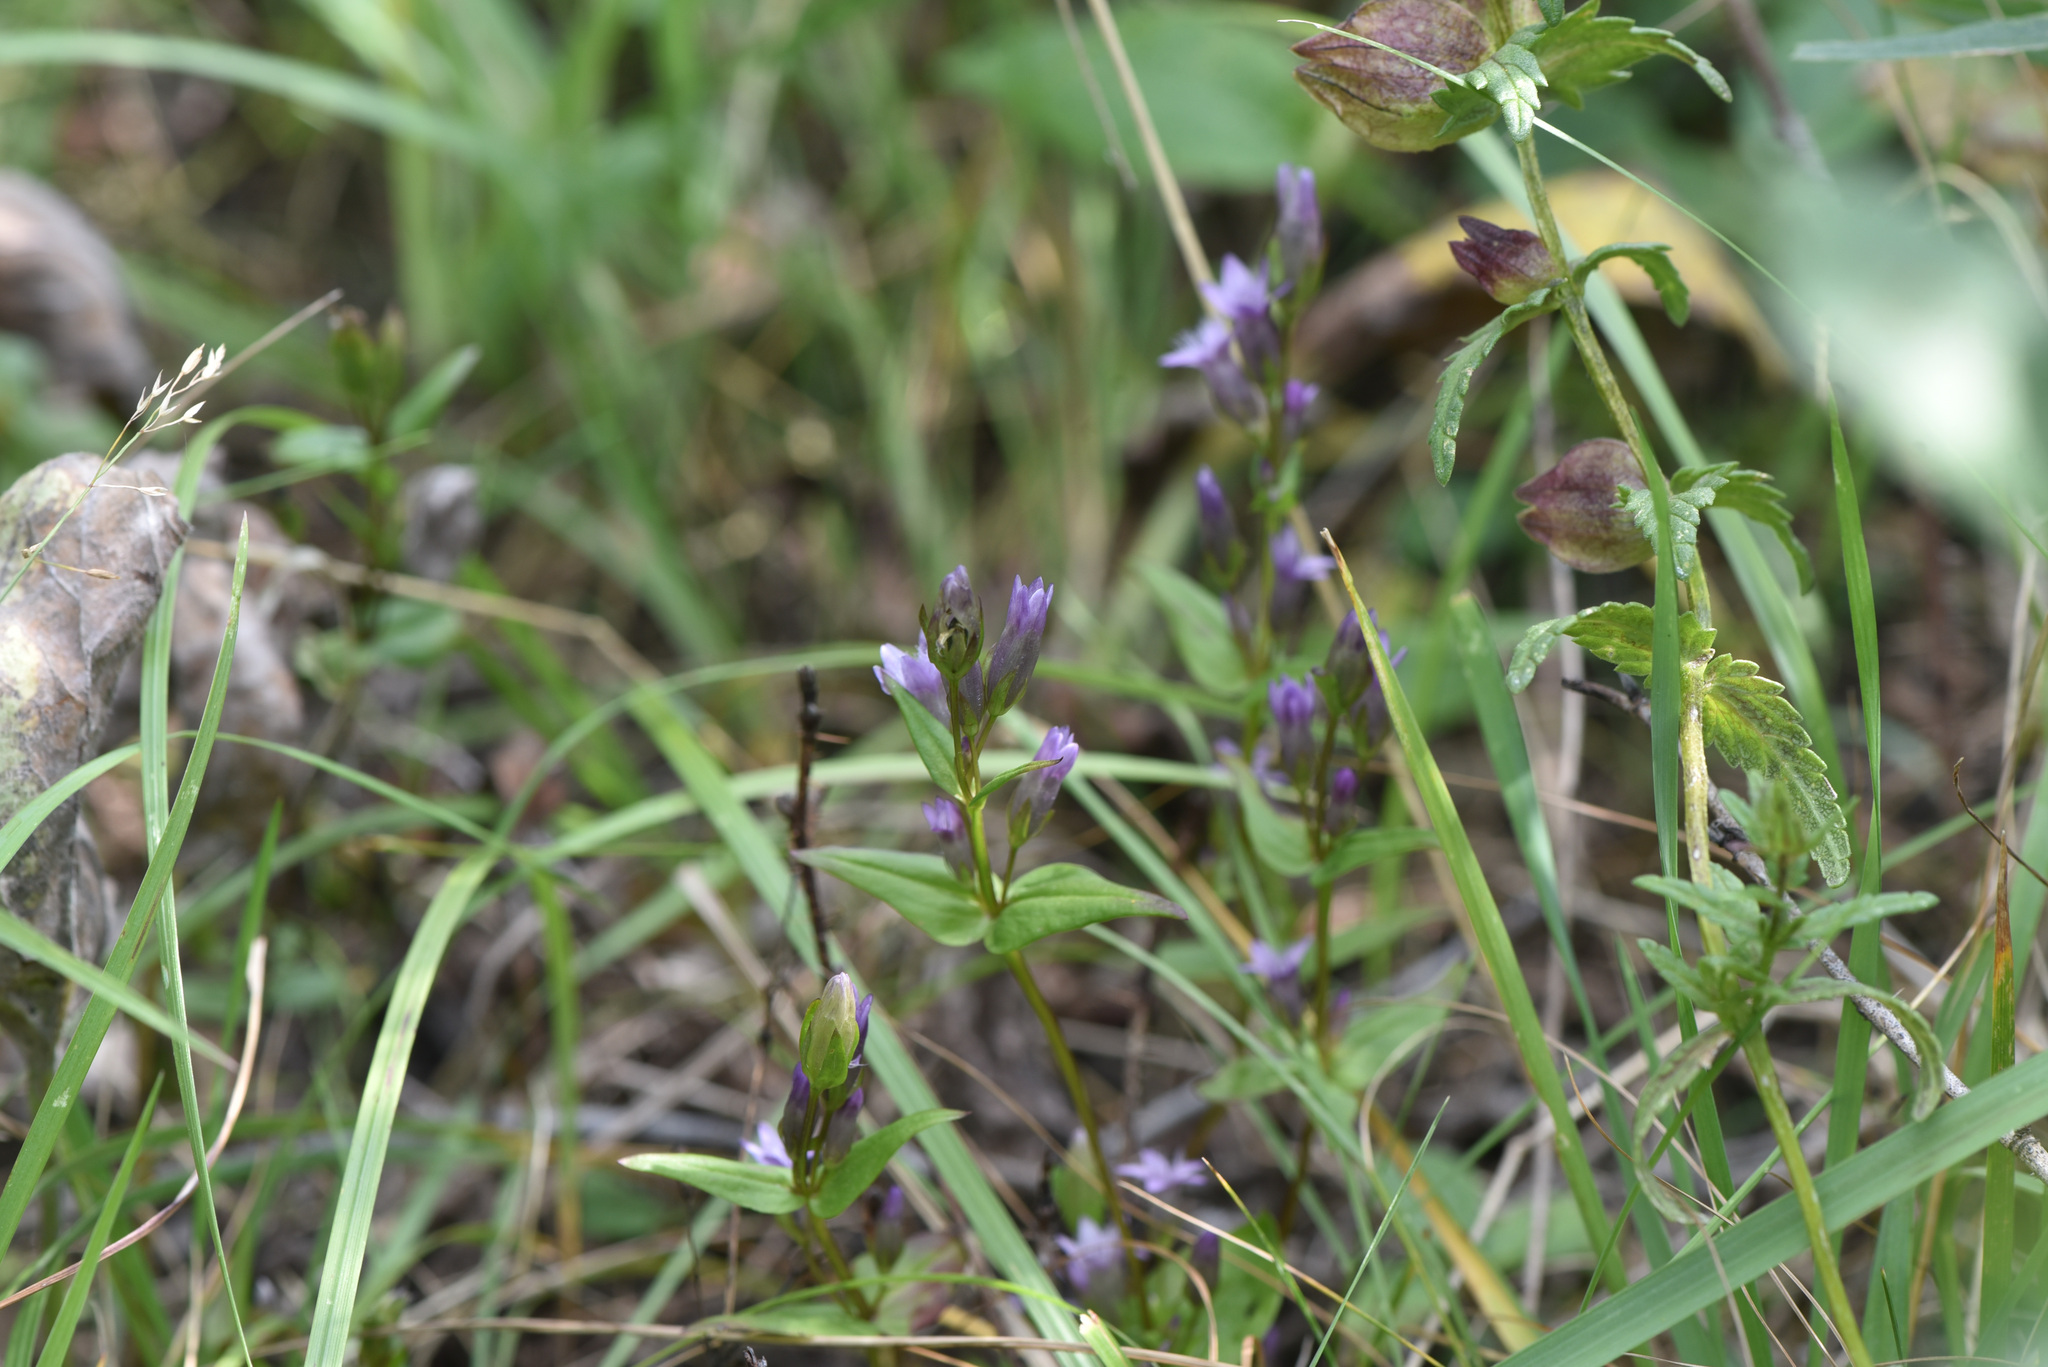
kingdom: Plantae
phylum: Tracheophyta
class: Magnoliopsida
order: Gentianales
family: Gentianaceae
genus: Gentianella
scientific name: Gentianella amarella
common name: Autumn gentian
